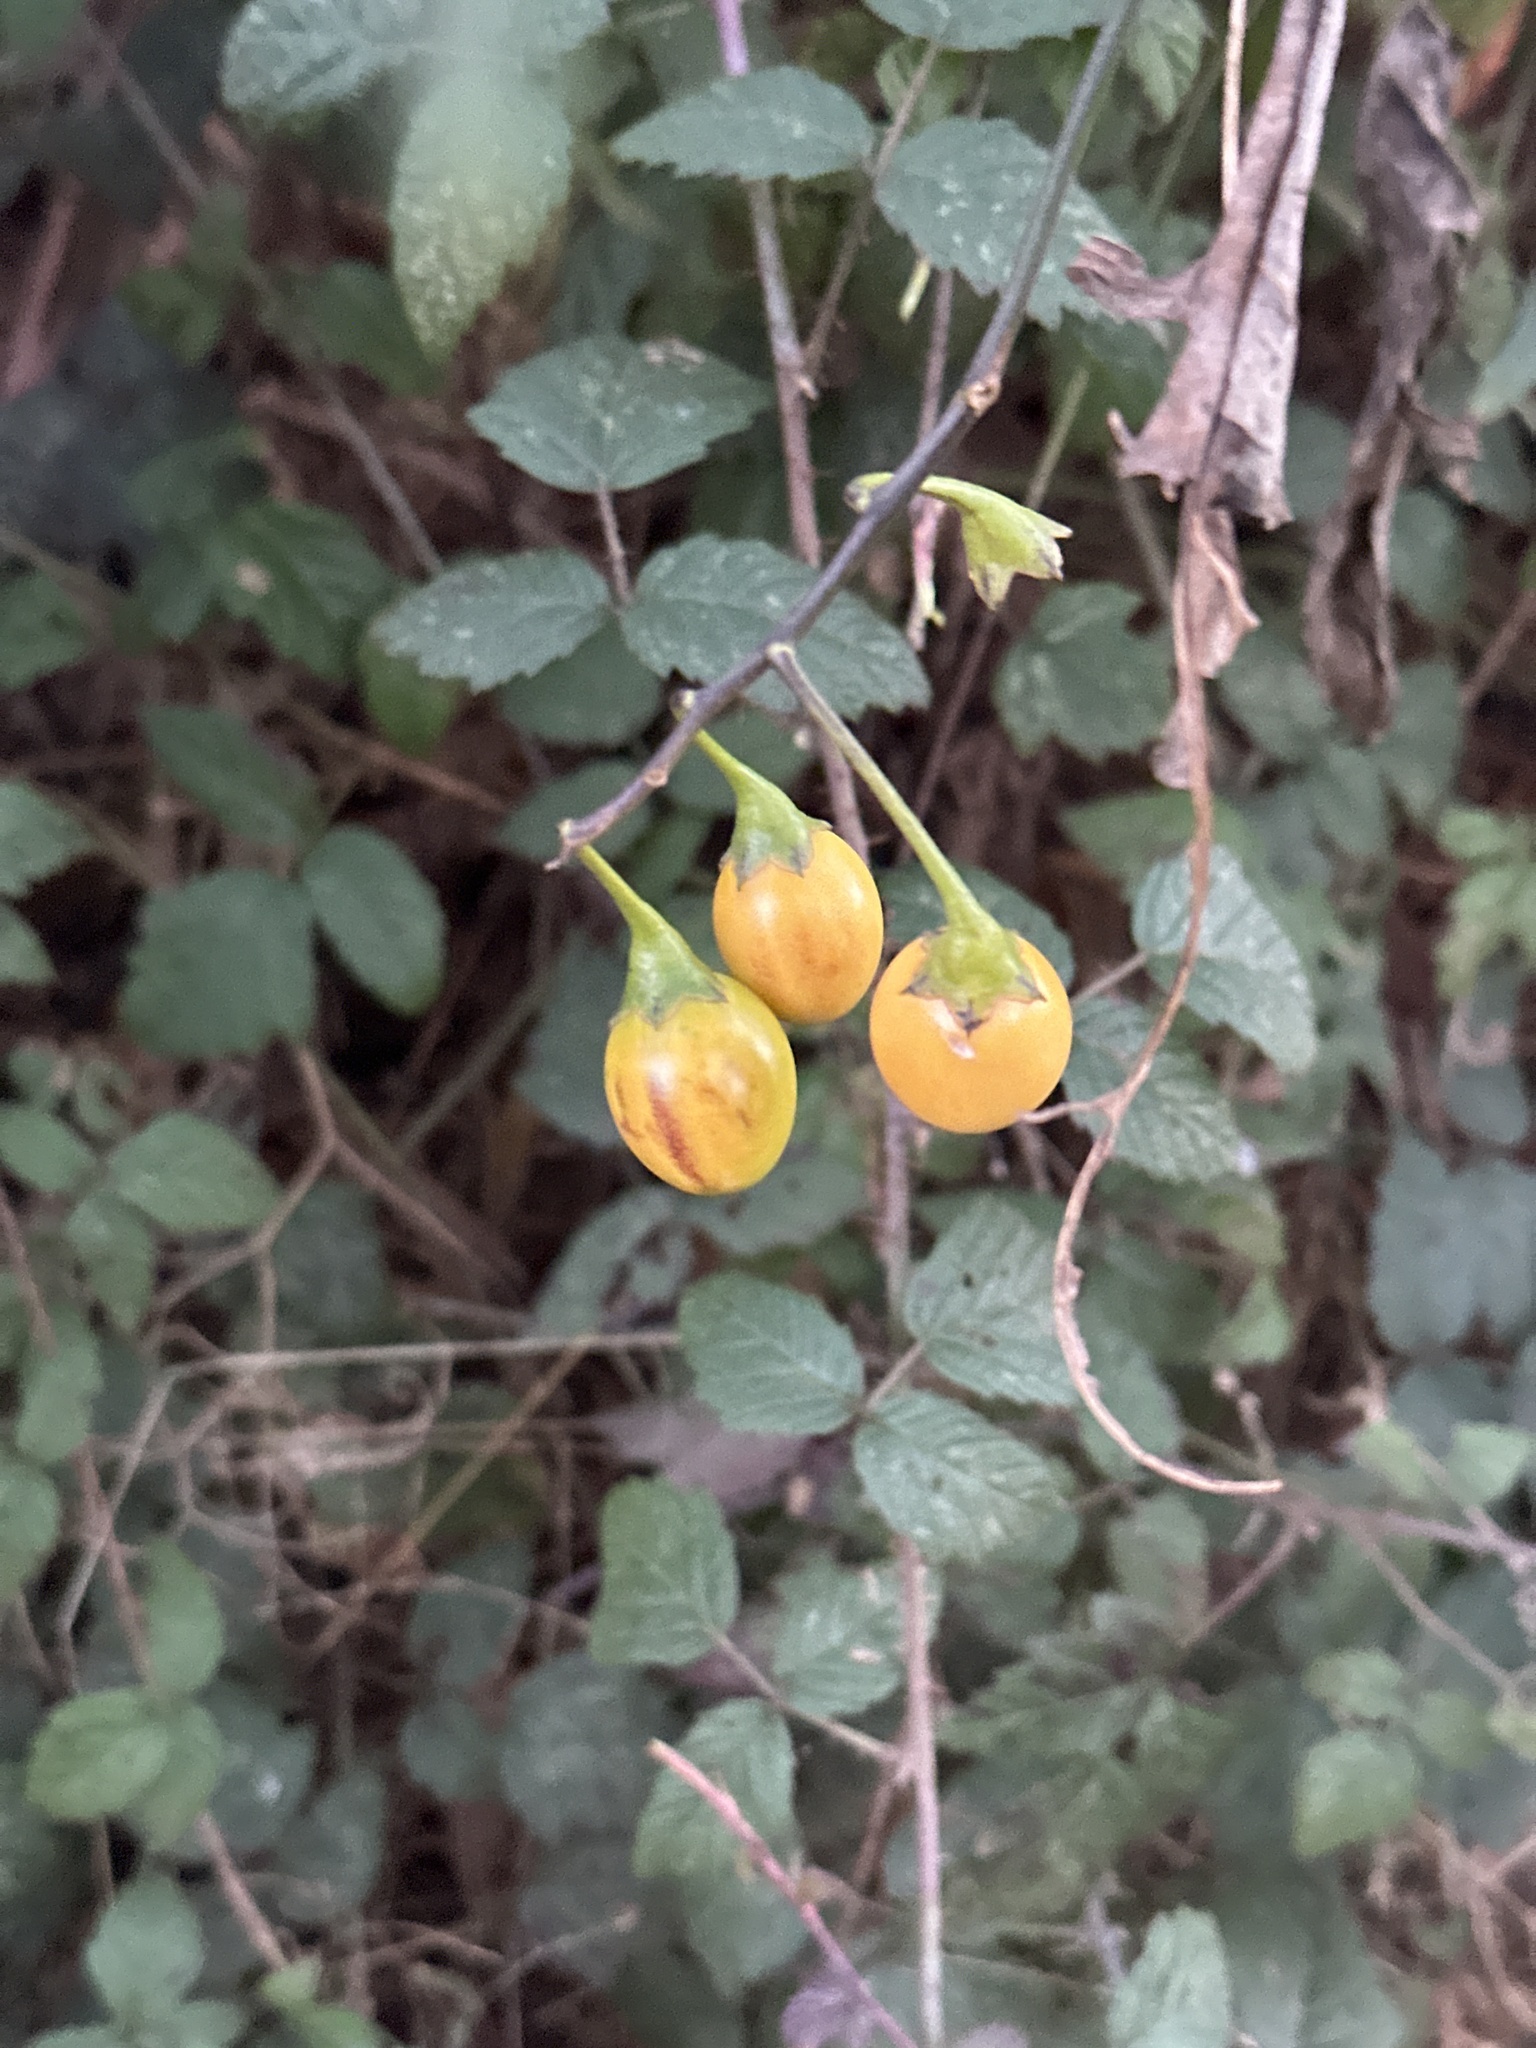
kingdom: Plantae
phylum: Tracheophyta
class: Magnoliopsida
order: Solanales
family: Solanaceae
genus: Solanum
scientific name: Solanum laciniatum
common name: Kangaroo-apple
